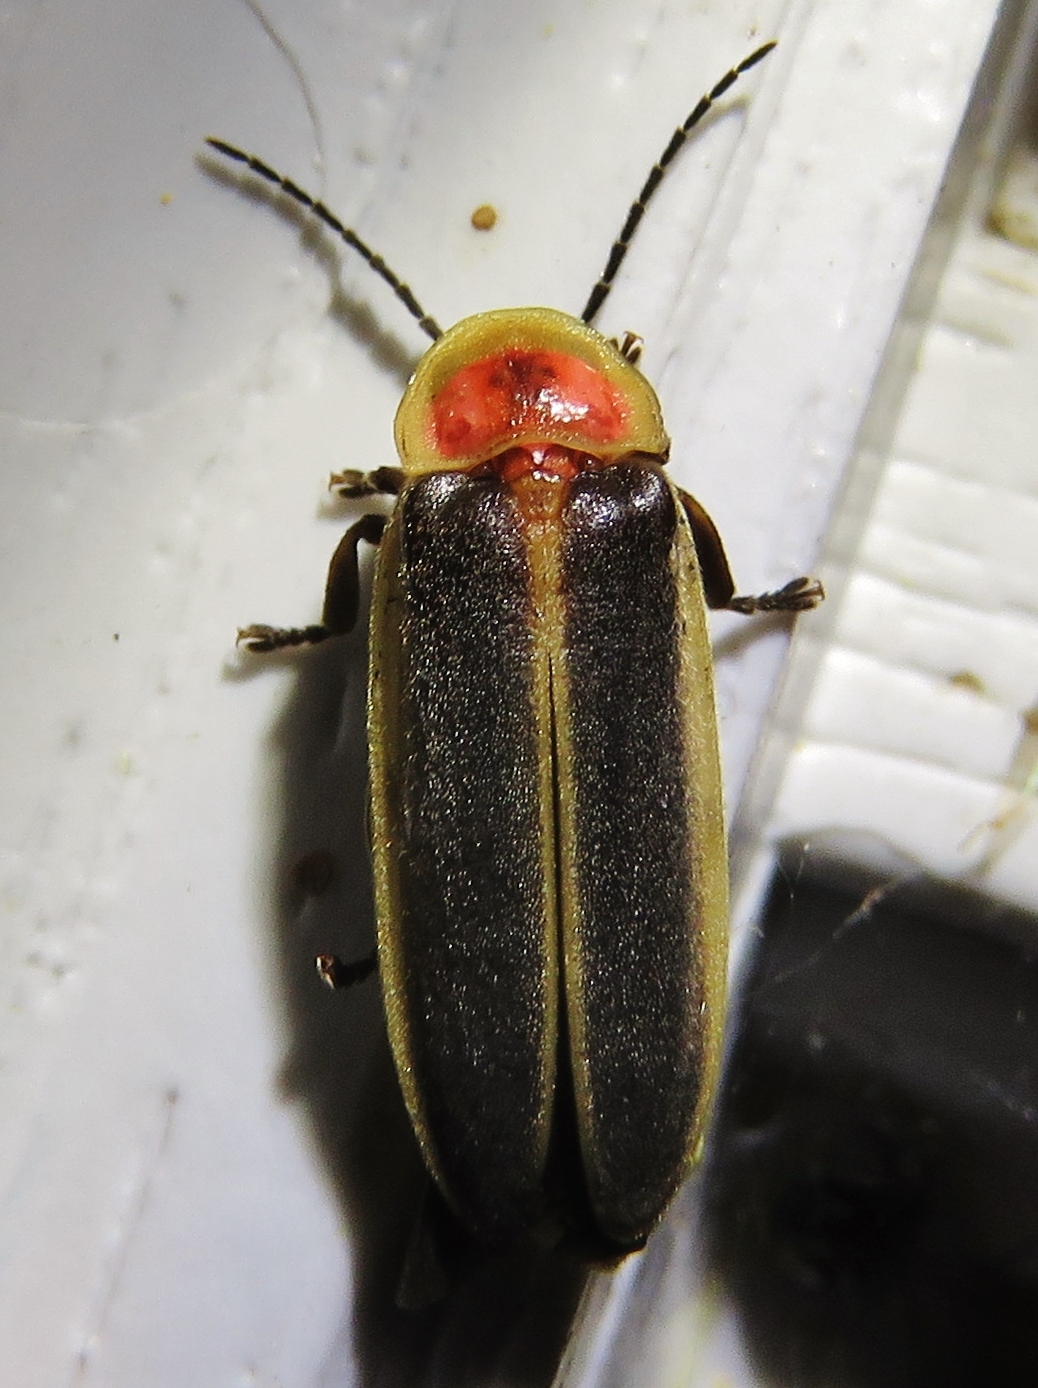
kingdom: Animalia
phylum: Arthropoda
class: Insecta
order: Coleoptera
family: Lampyridae
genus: Photinus
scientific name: Photinus pyralis
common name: Big dipper firefly
